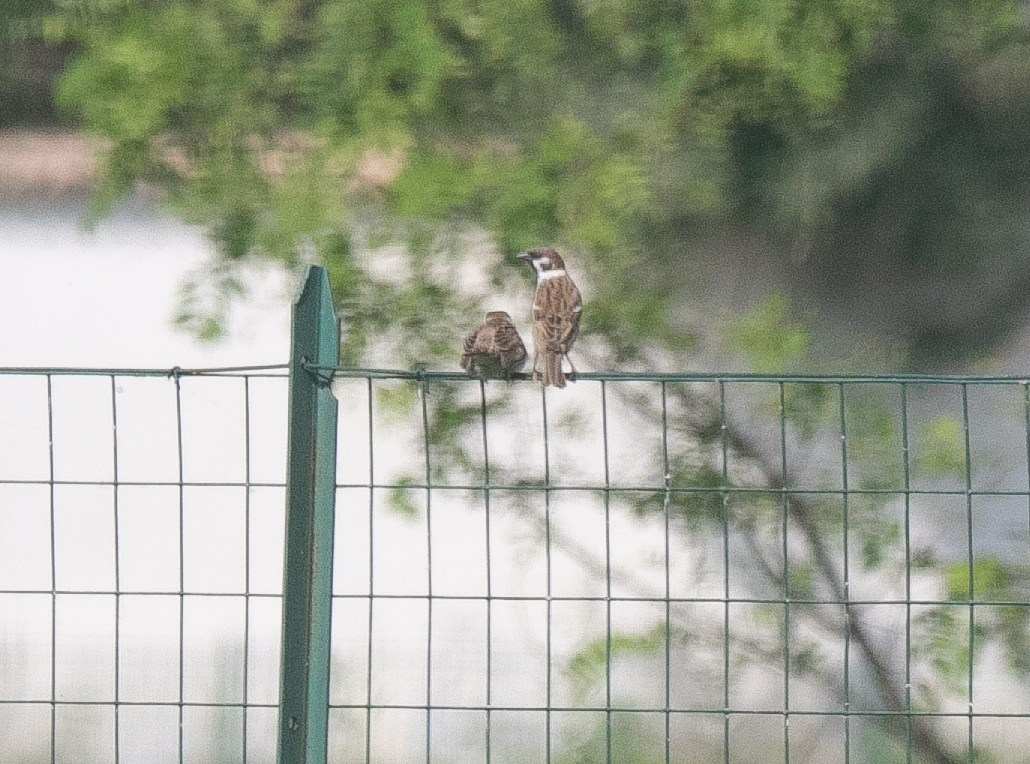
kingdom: Animalia
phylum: Chordata
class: Aves
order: Passeriformes
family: Passeridae
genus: Passer
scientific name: Passer montanus
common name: Eurasian tree sparrow
